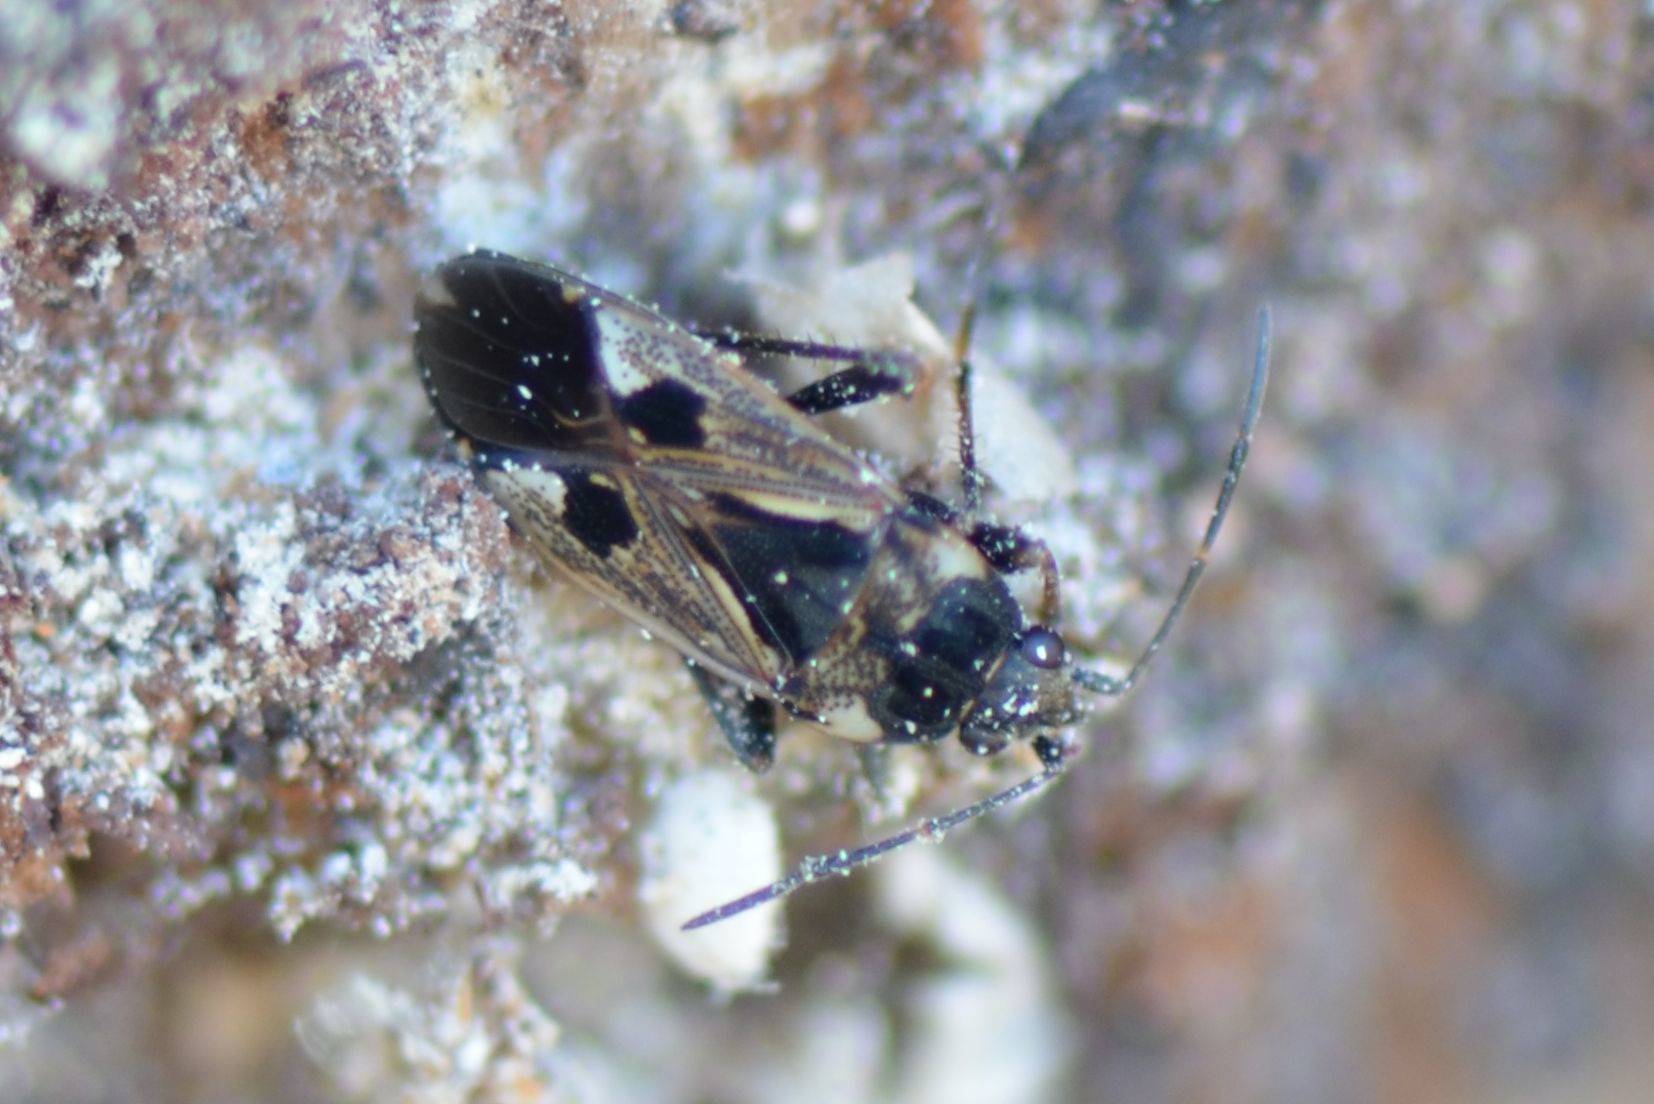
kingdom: Animalia
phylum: Arthropoda
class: Insecta
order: Hemiptera
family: Rhyparochromidae
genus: Rhyparochromus
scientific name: Rhyparochromus vulgaris
